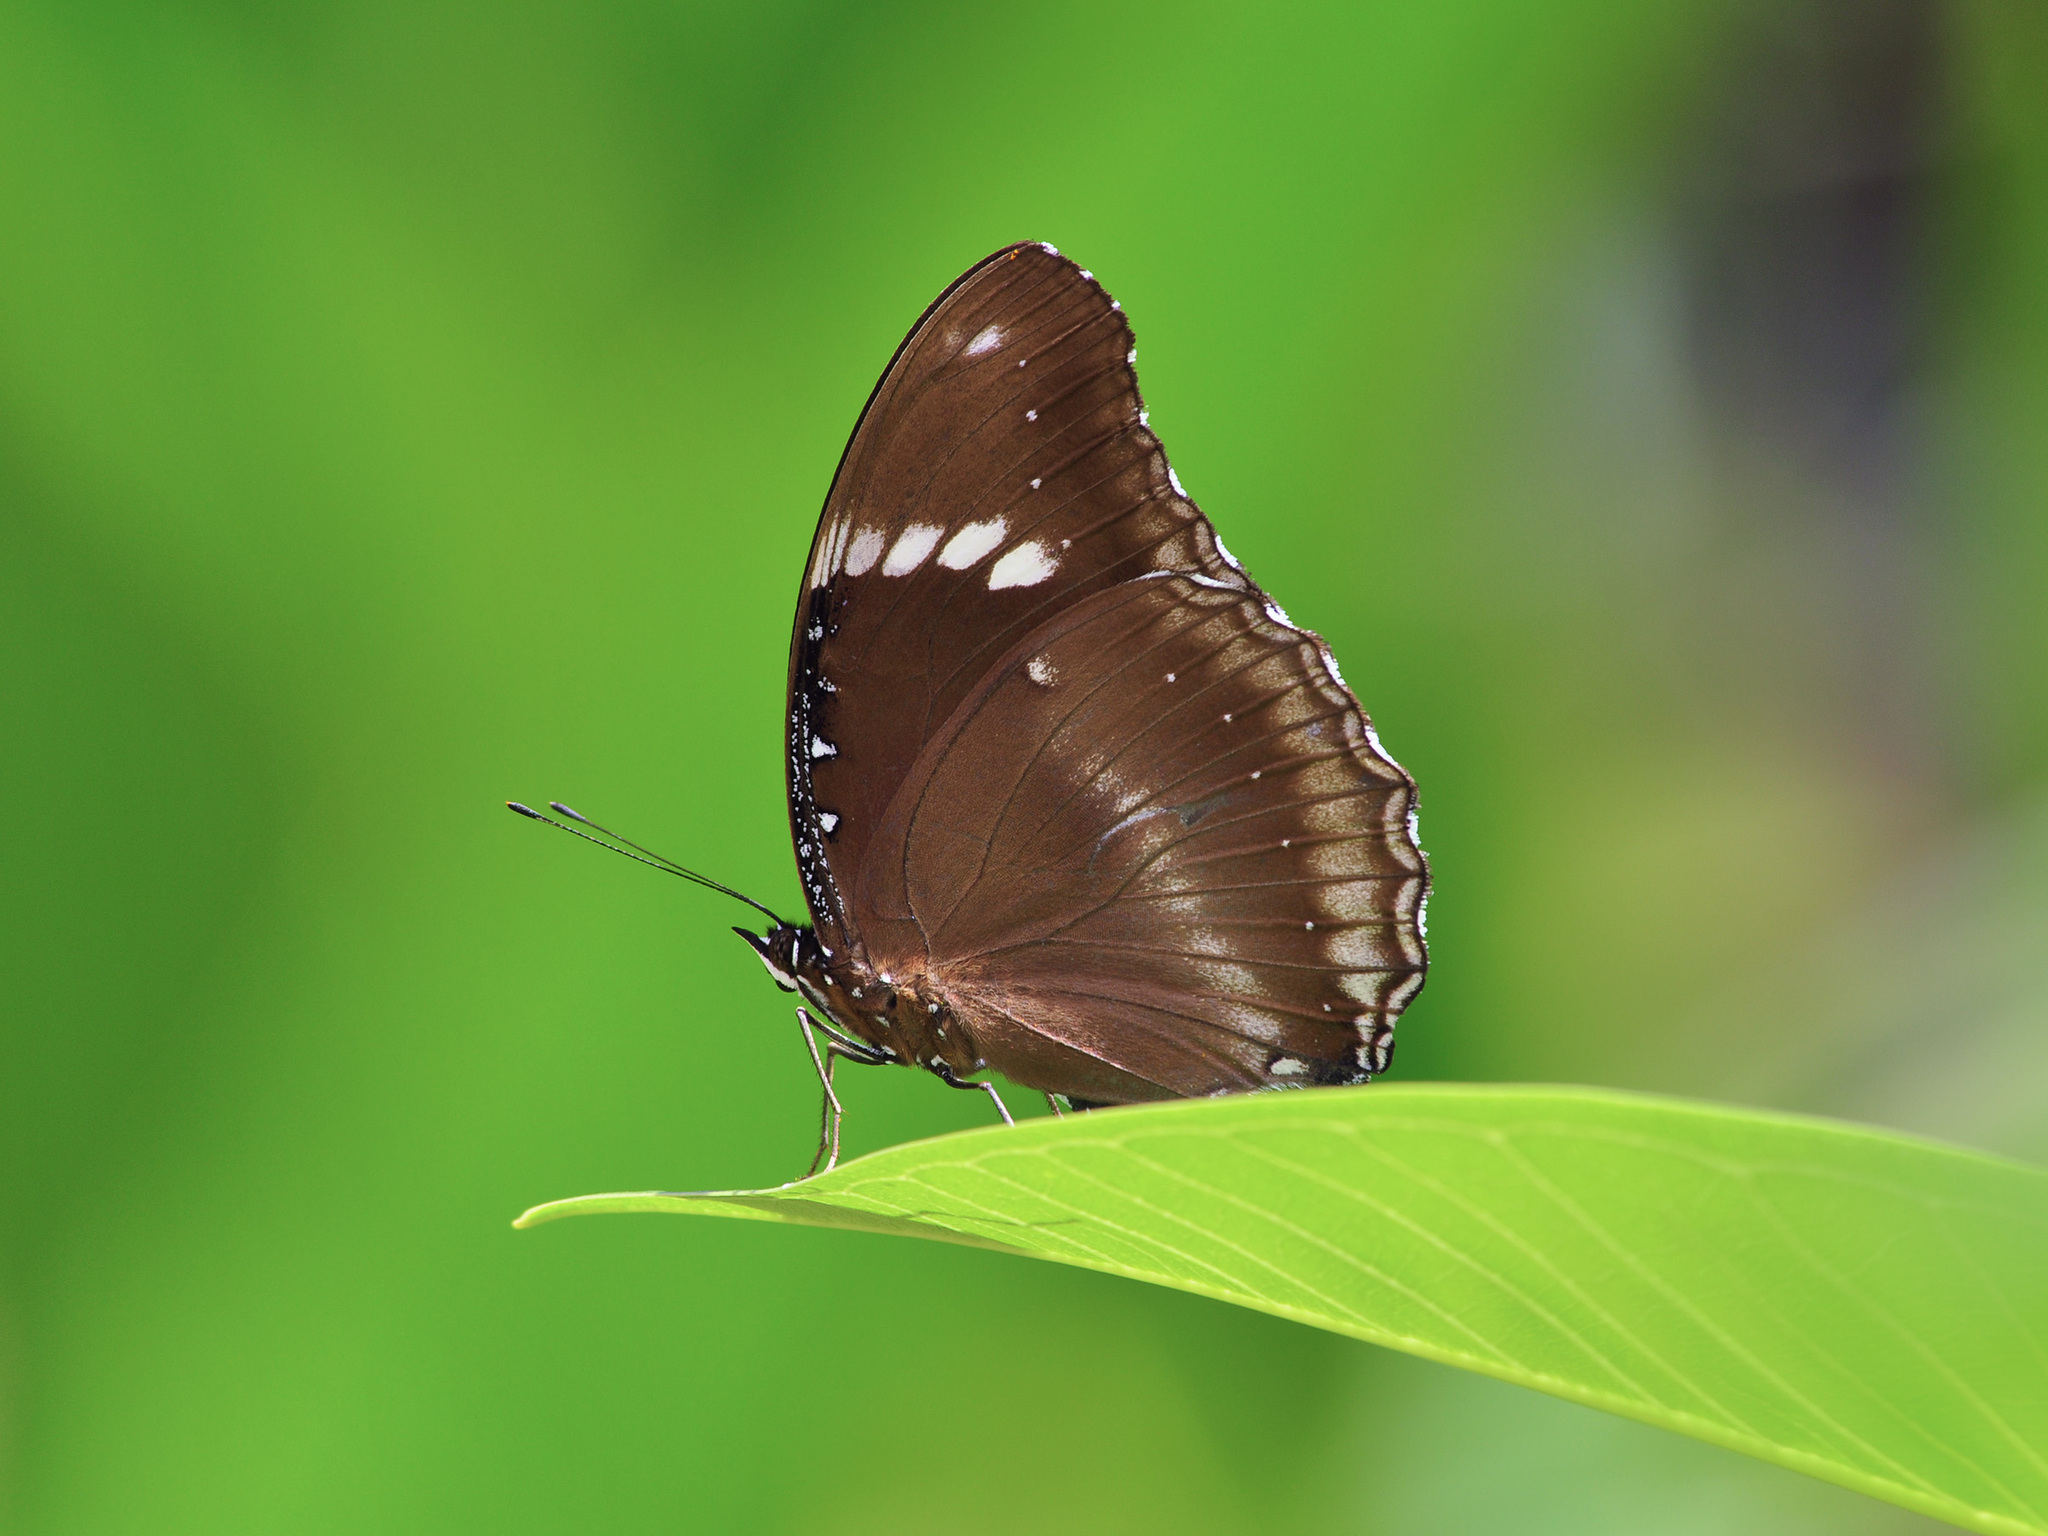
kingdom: Animalia
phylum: Arthropoda
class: Insecta
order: Lepidoptera
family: Nymphalidae
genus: Hypolimnas
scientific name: Hypolimnas bolina
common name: Great eggfly
